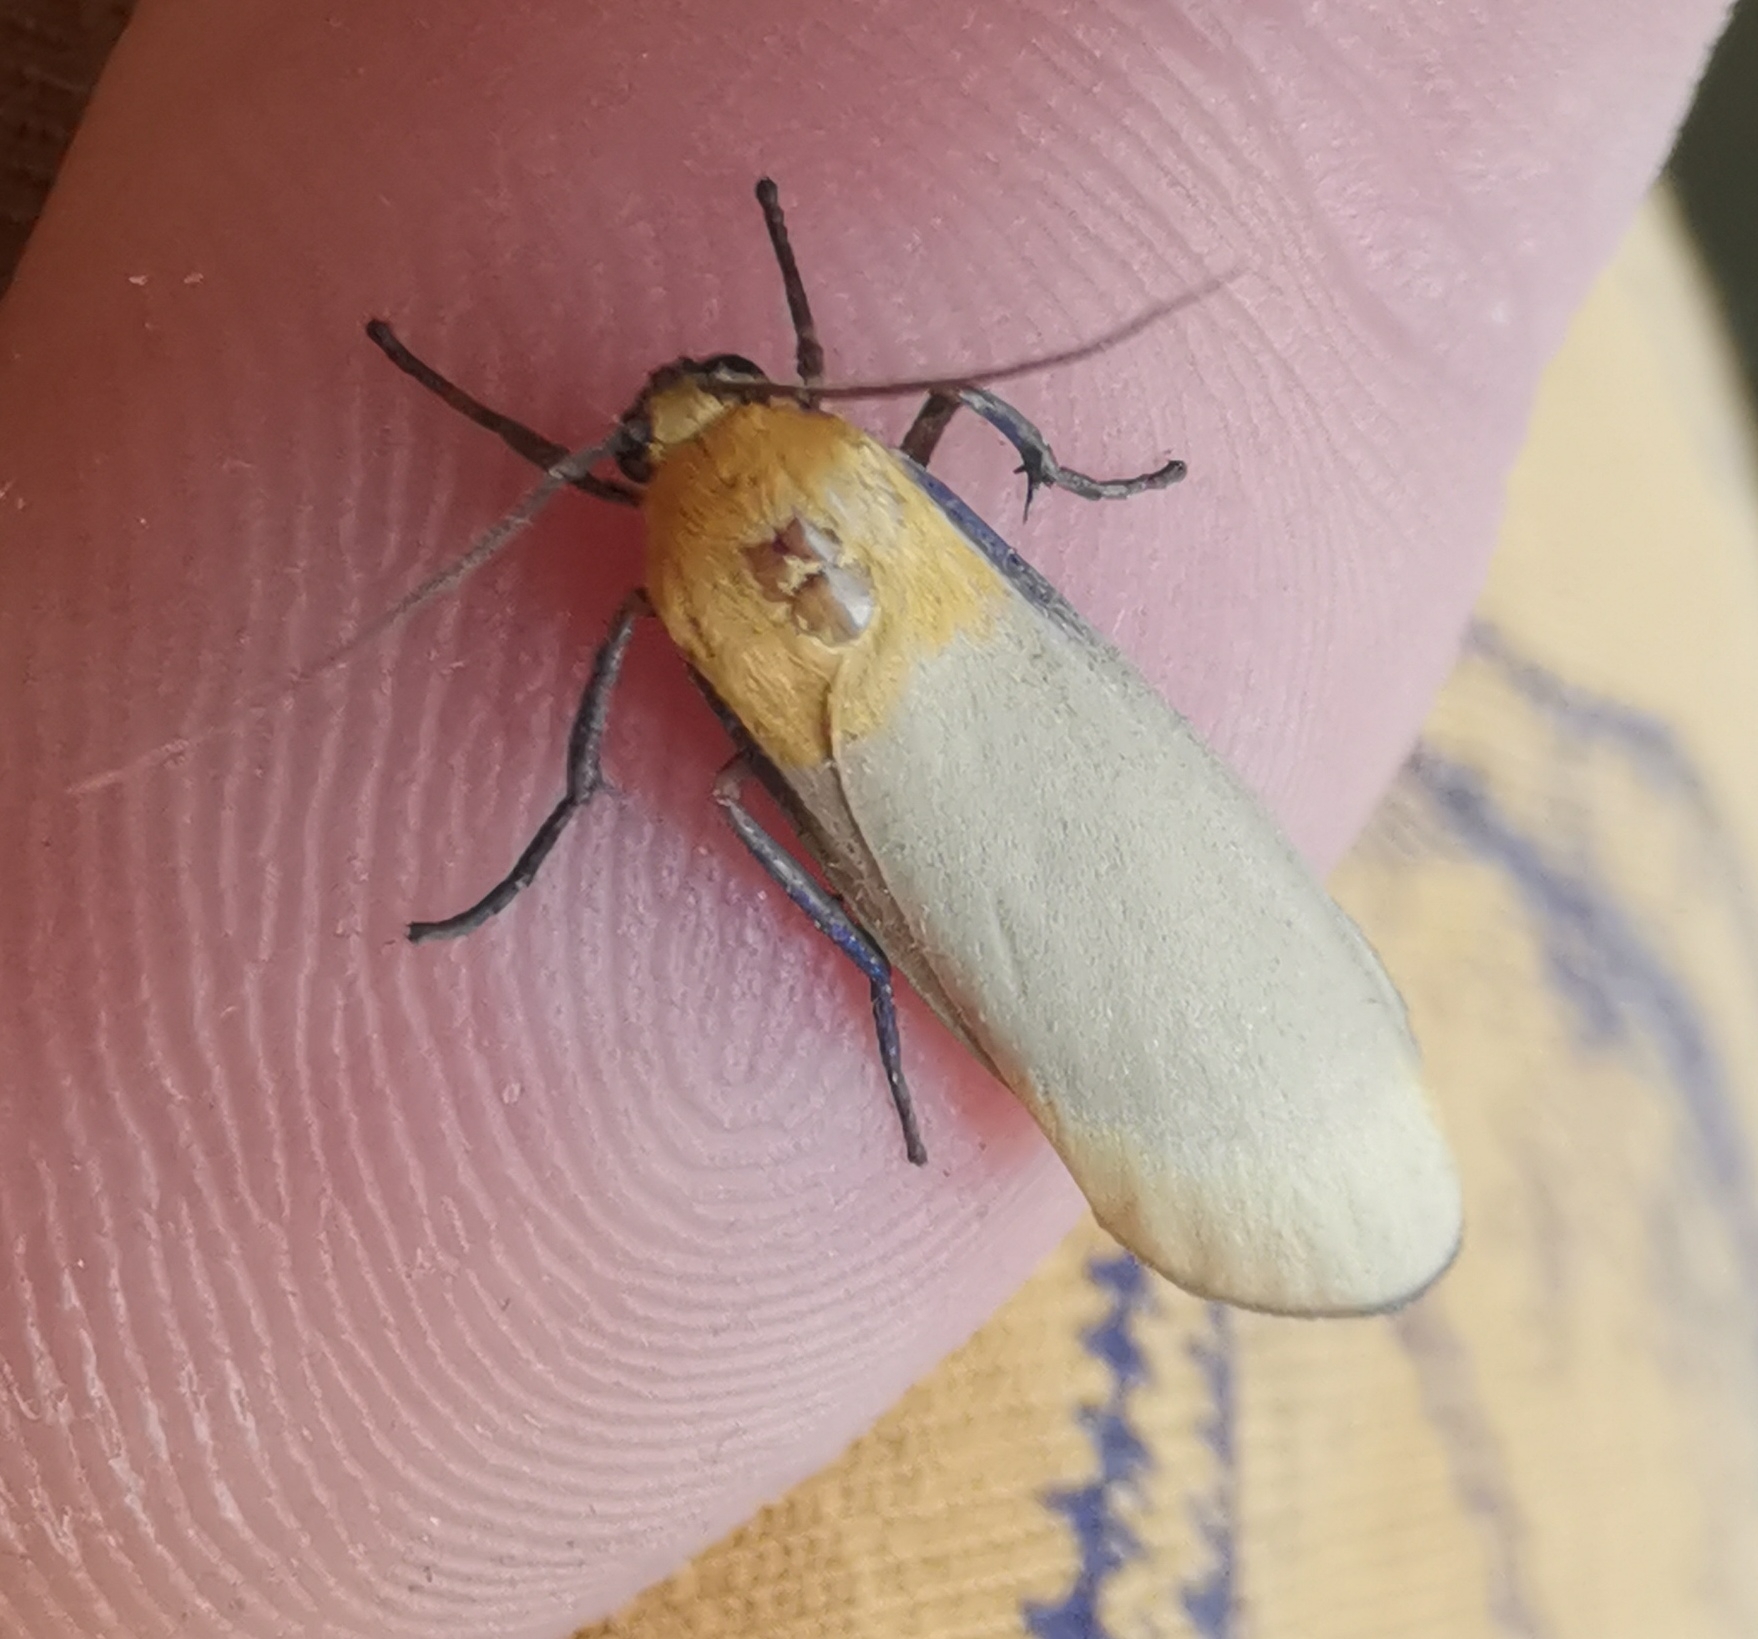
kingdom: Animalia
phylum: Arthropoda
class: Insecta
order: Lepidoptera
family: Erebidae
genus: Lithosia
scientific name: Lithosia quadra
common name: Four-spotted footman
